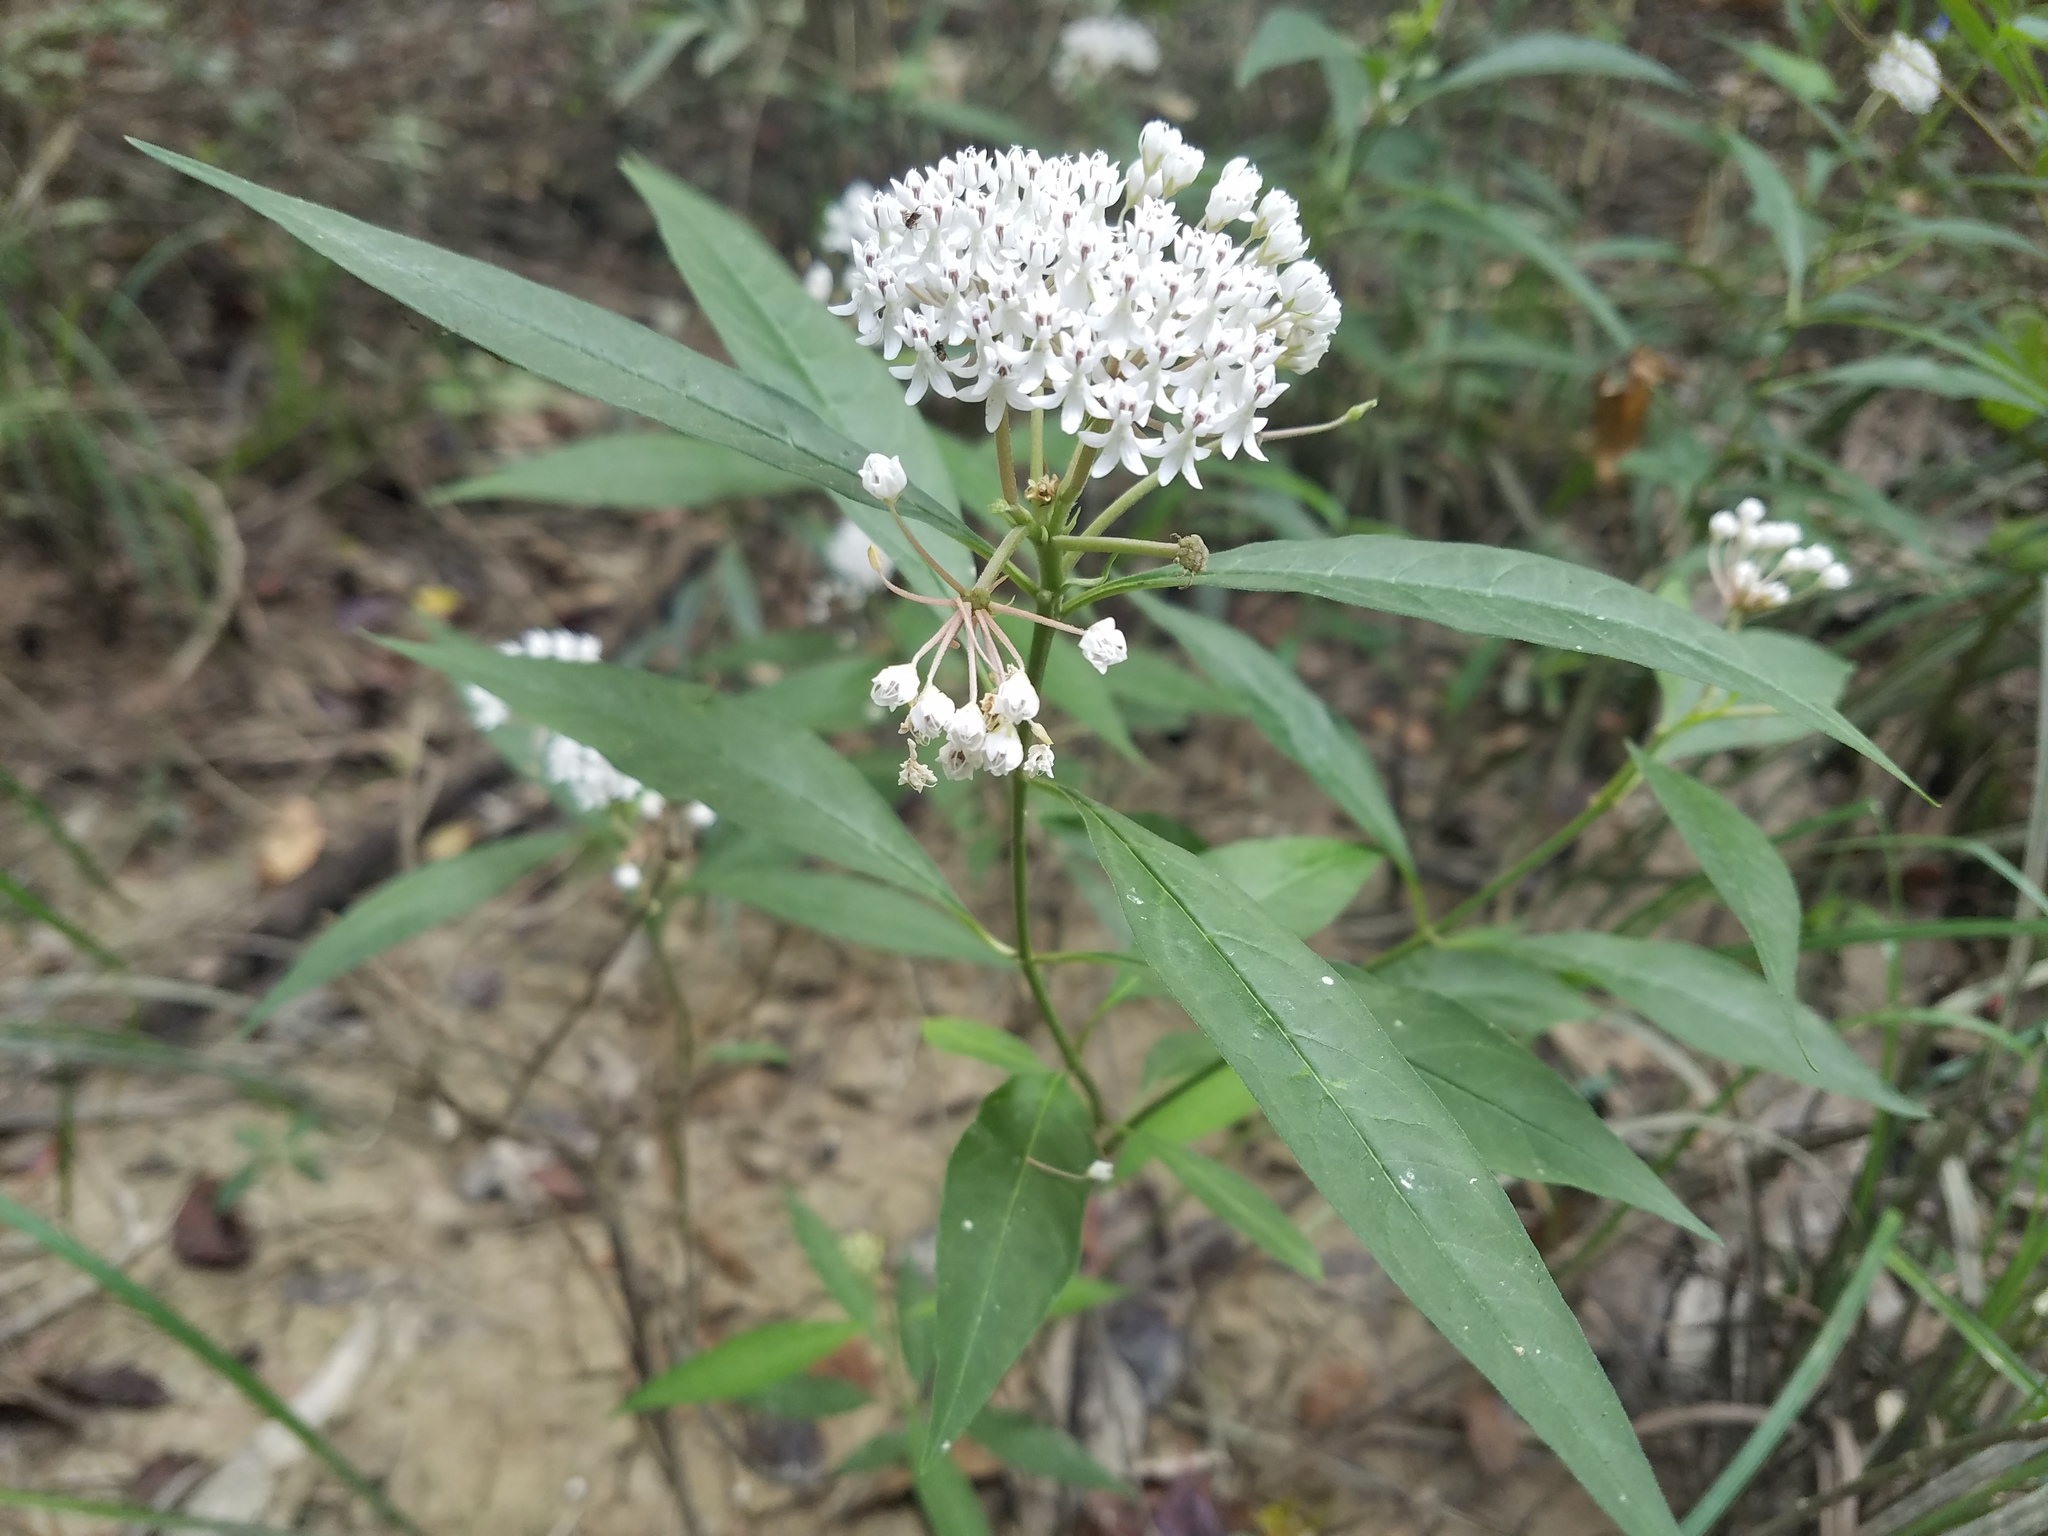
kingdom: Plantae
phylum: Tracheophyta
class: Magnoliopsida
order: Gentianales
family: Apocynaceae
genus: Asclepias
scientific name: Asclepias perennis
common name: Smooth-seed milkweed
